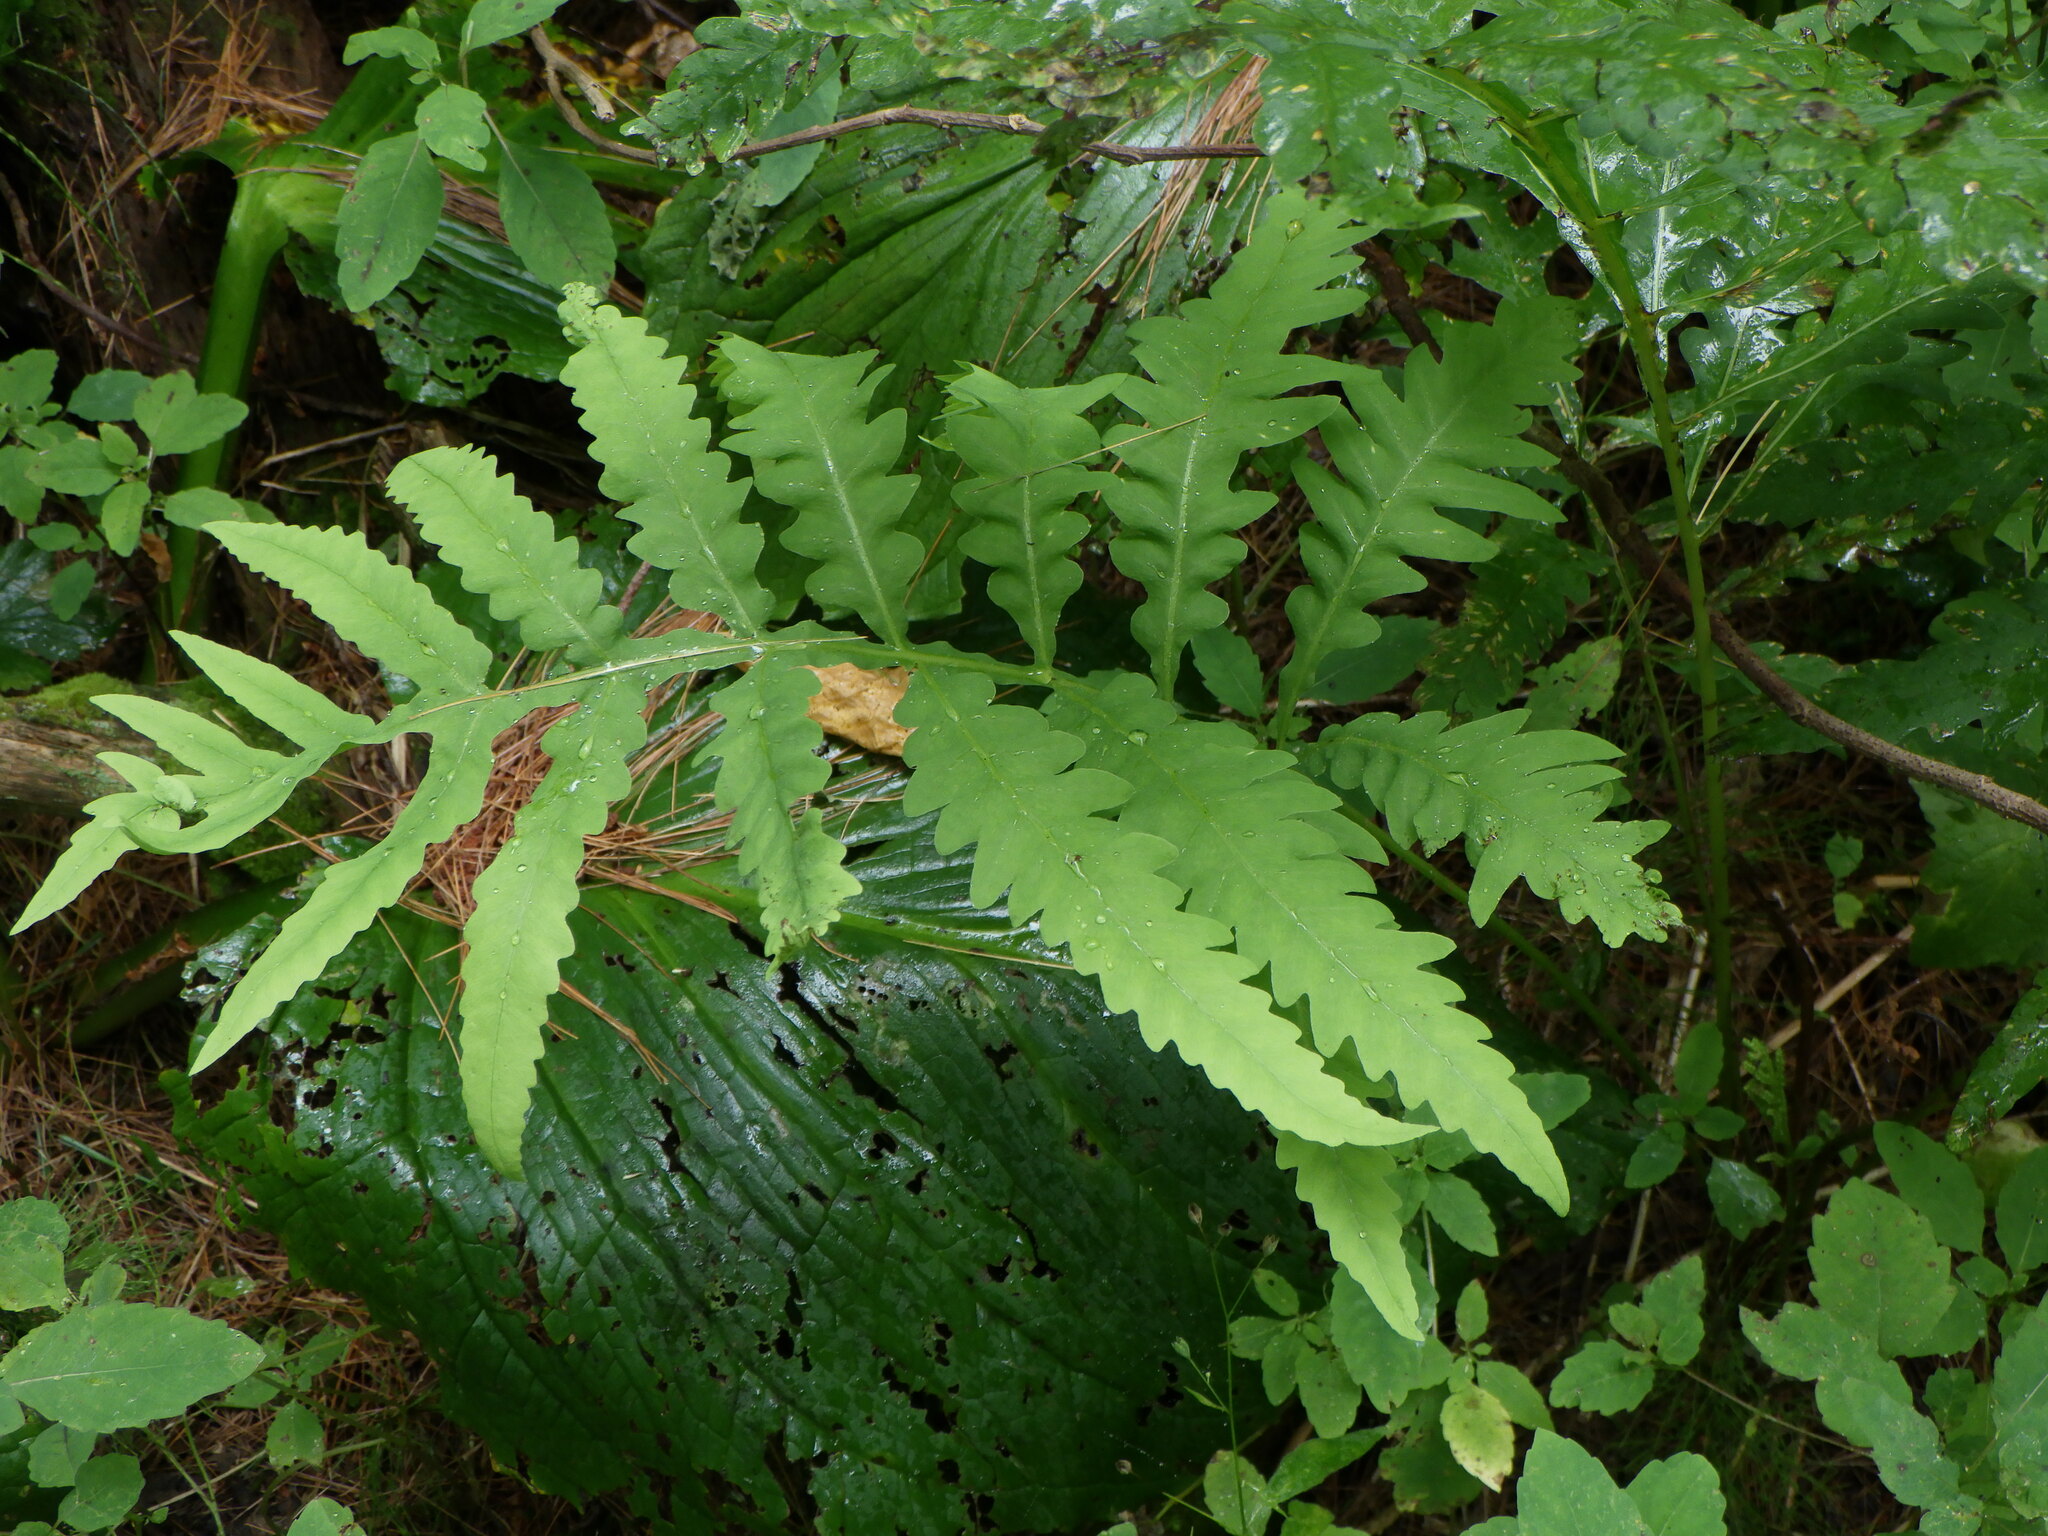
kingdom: Plantae
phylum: Tracheophyta
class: Polypodiopsida
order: Polypodiales
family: Onocleaceae
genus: Onoclea
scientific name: Onoclea sensibilis
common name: Sensitive fern
